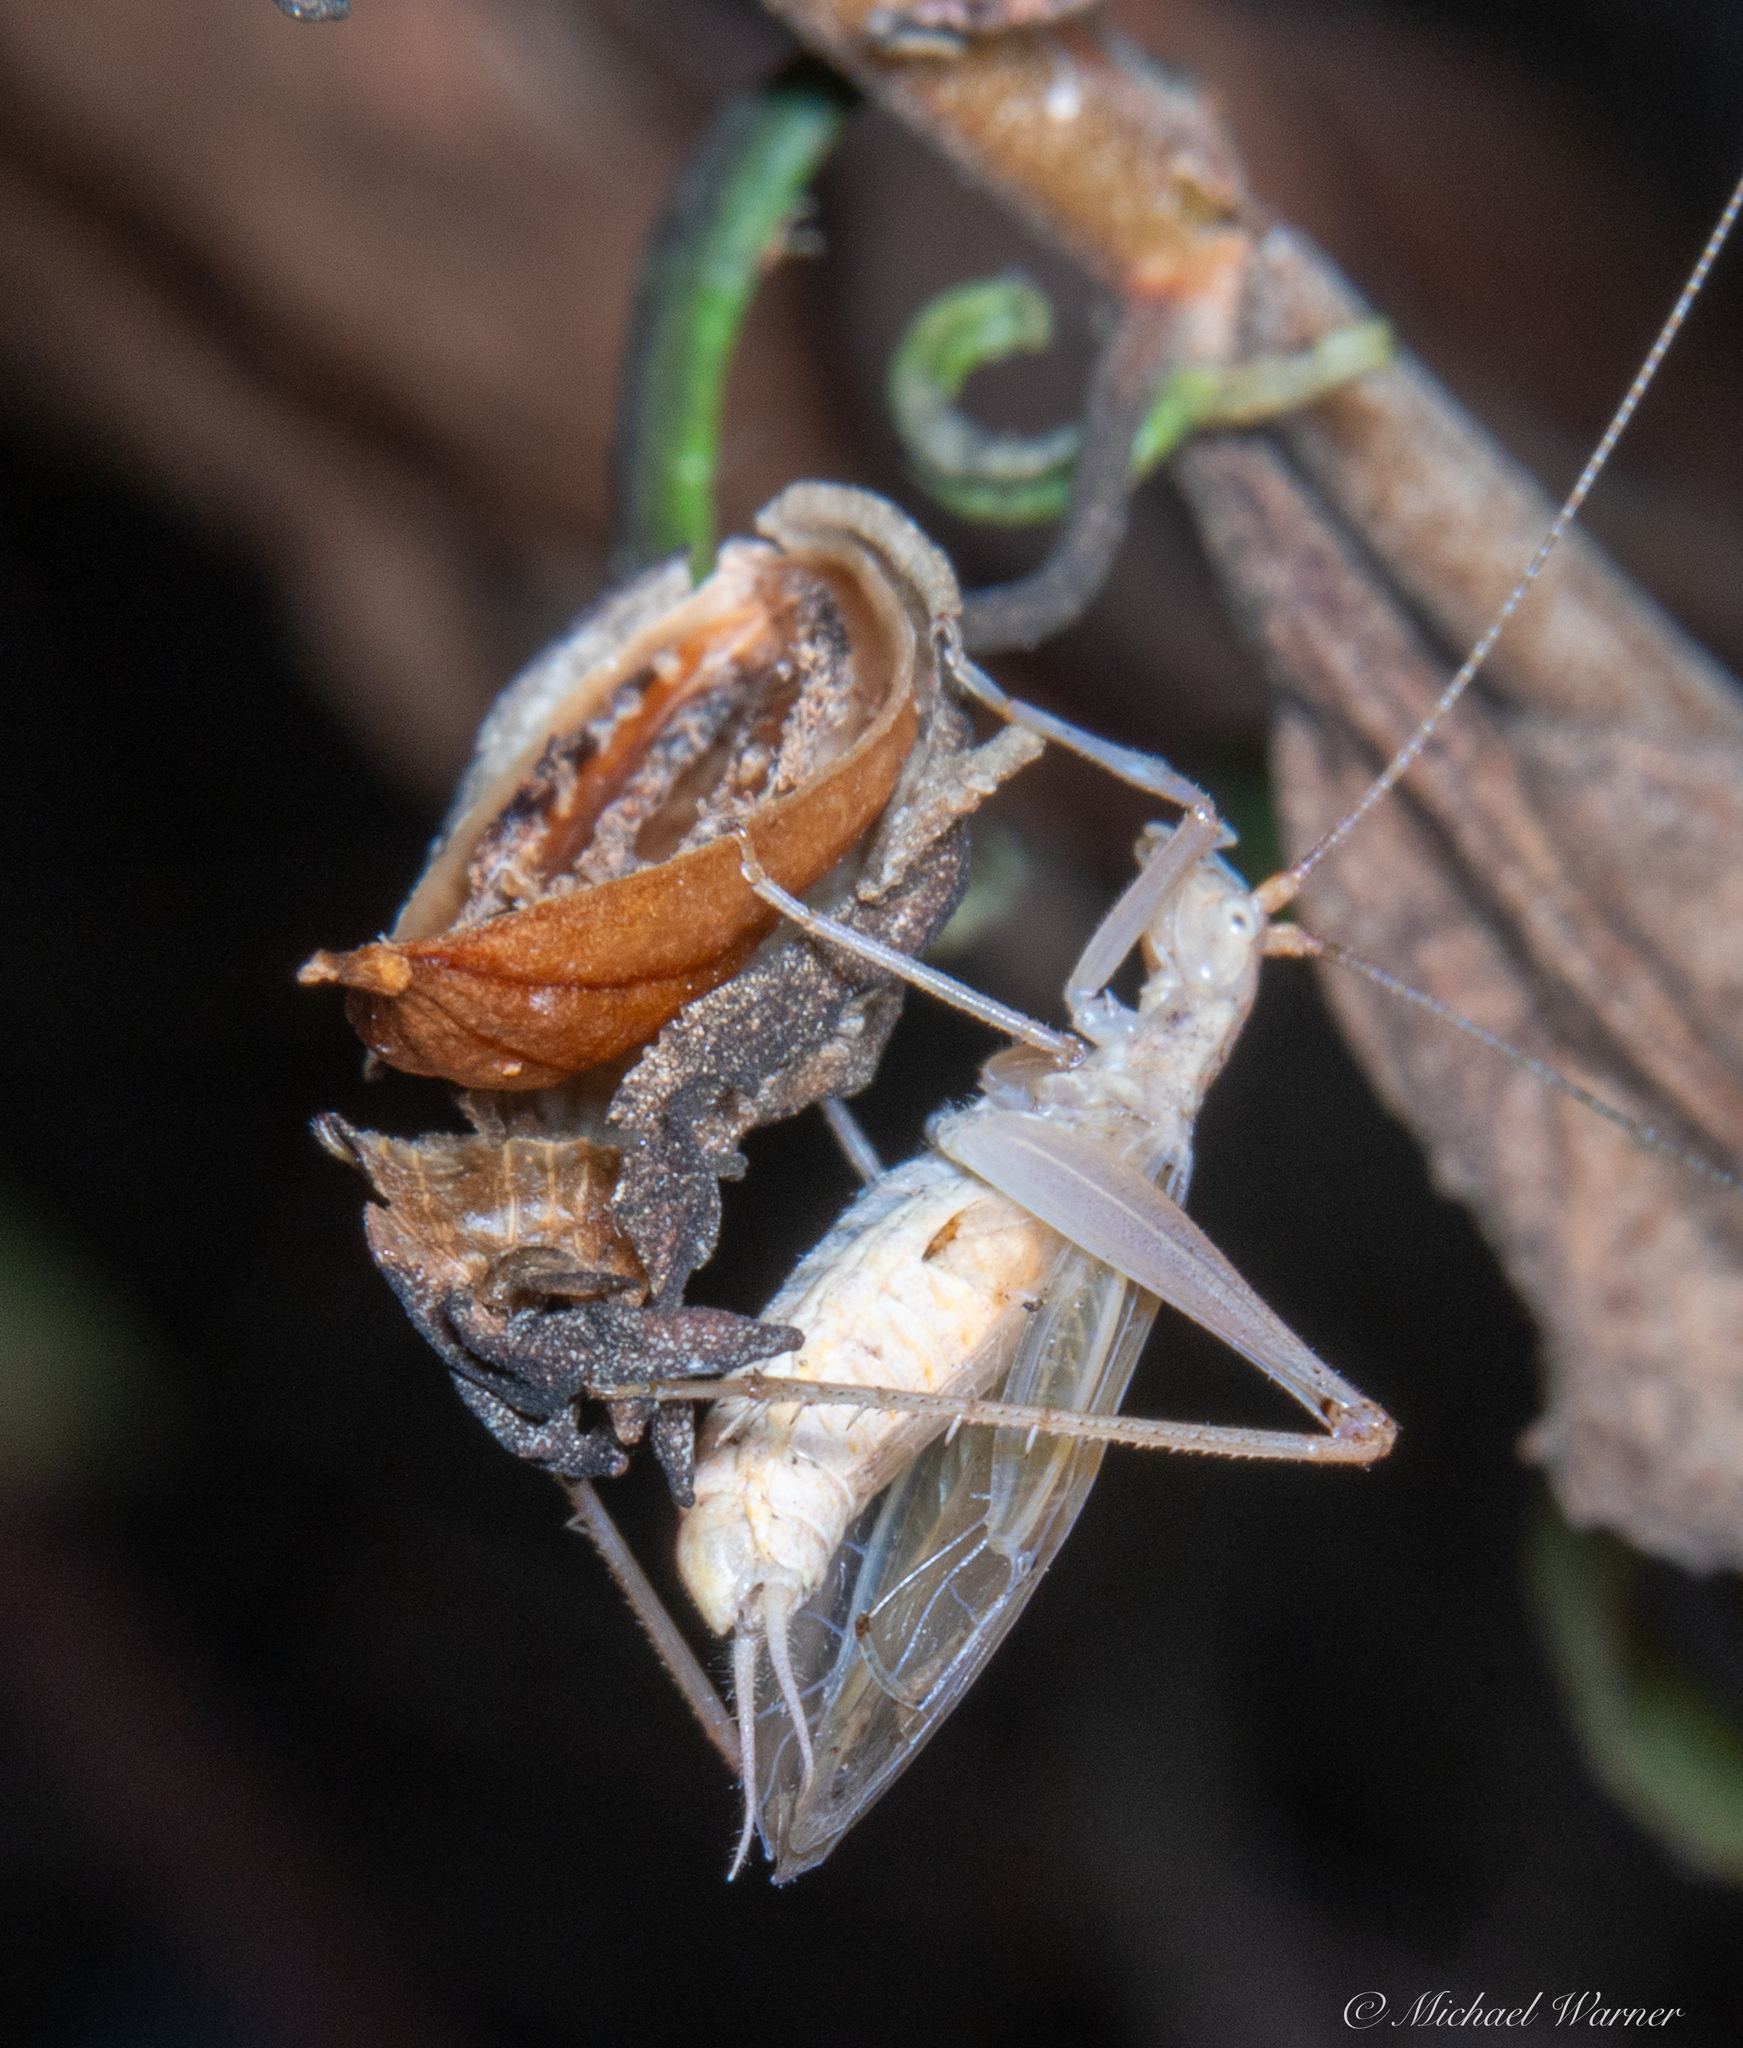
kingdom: Animalia
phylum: Arthropoda
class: Insecta
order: Orthoptera
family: Gryllidae
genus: Oecanthus
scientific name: Oecanthus californicus
